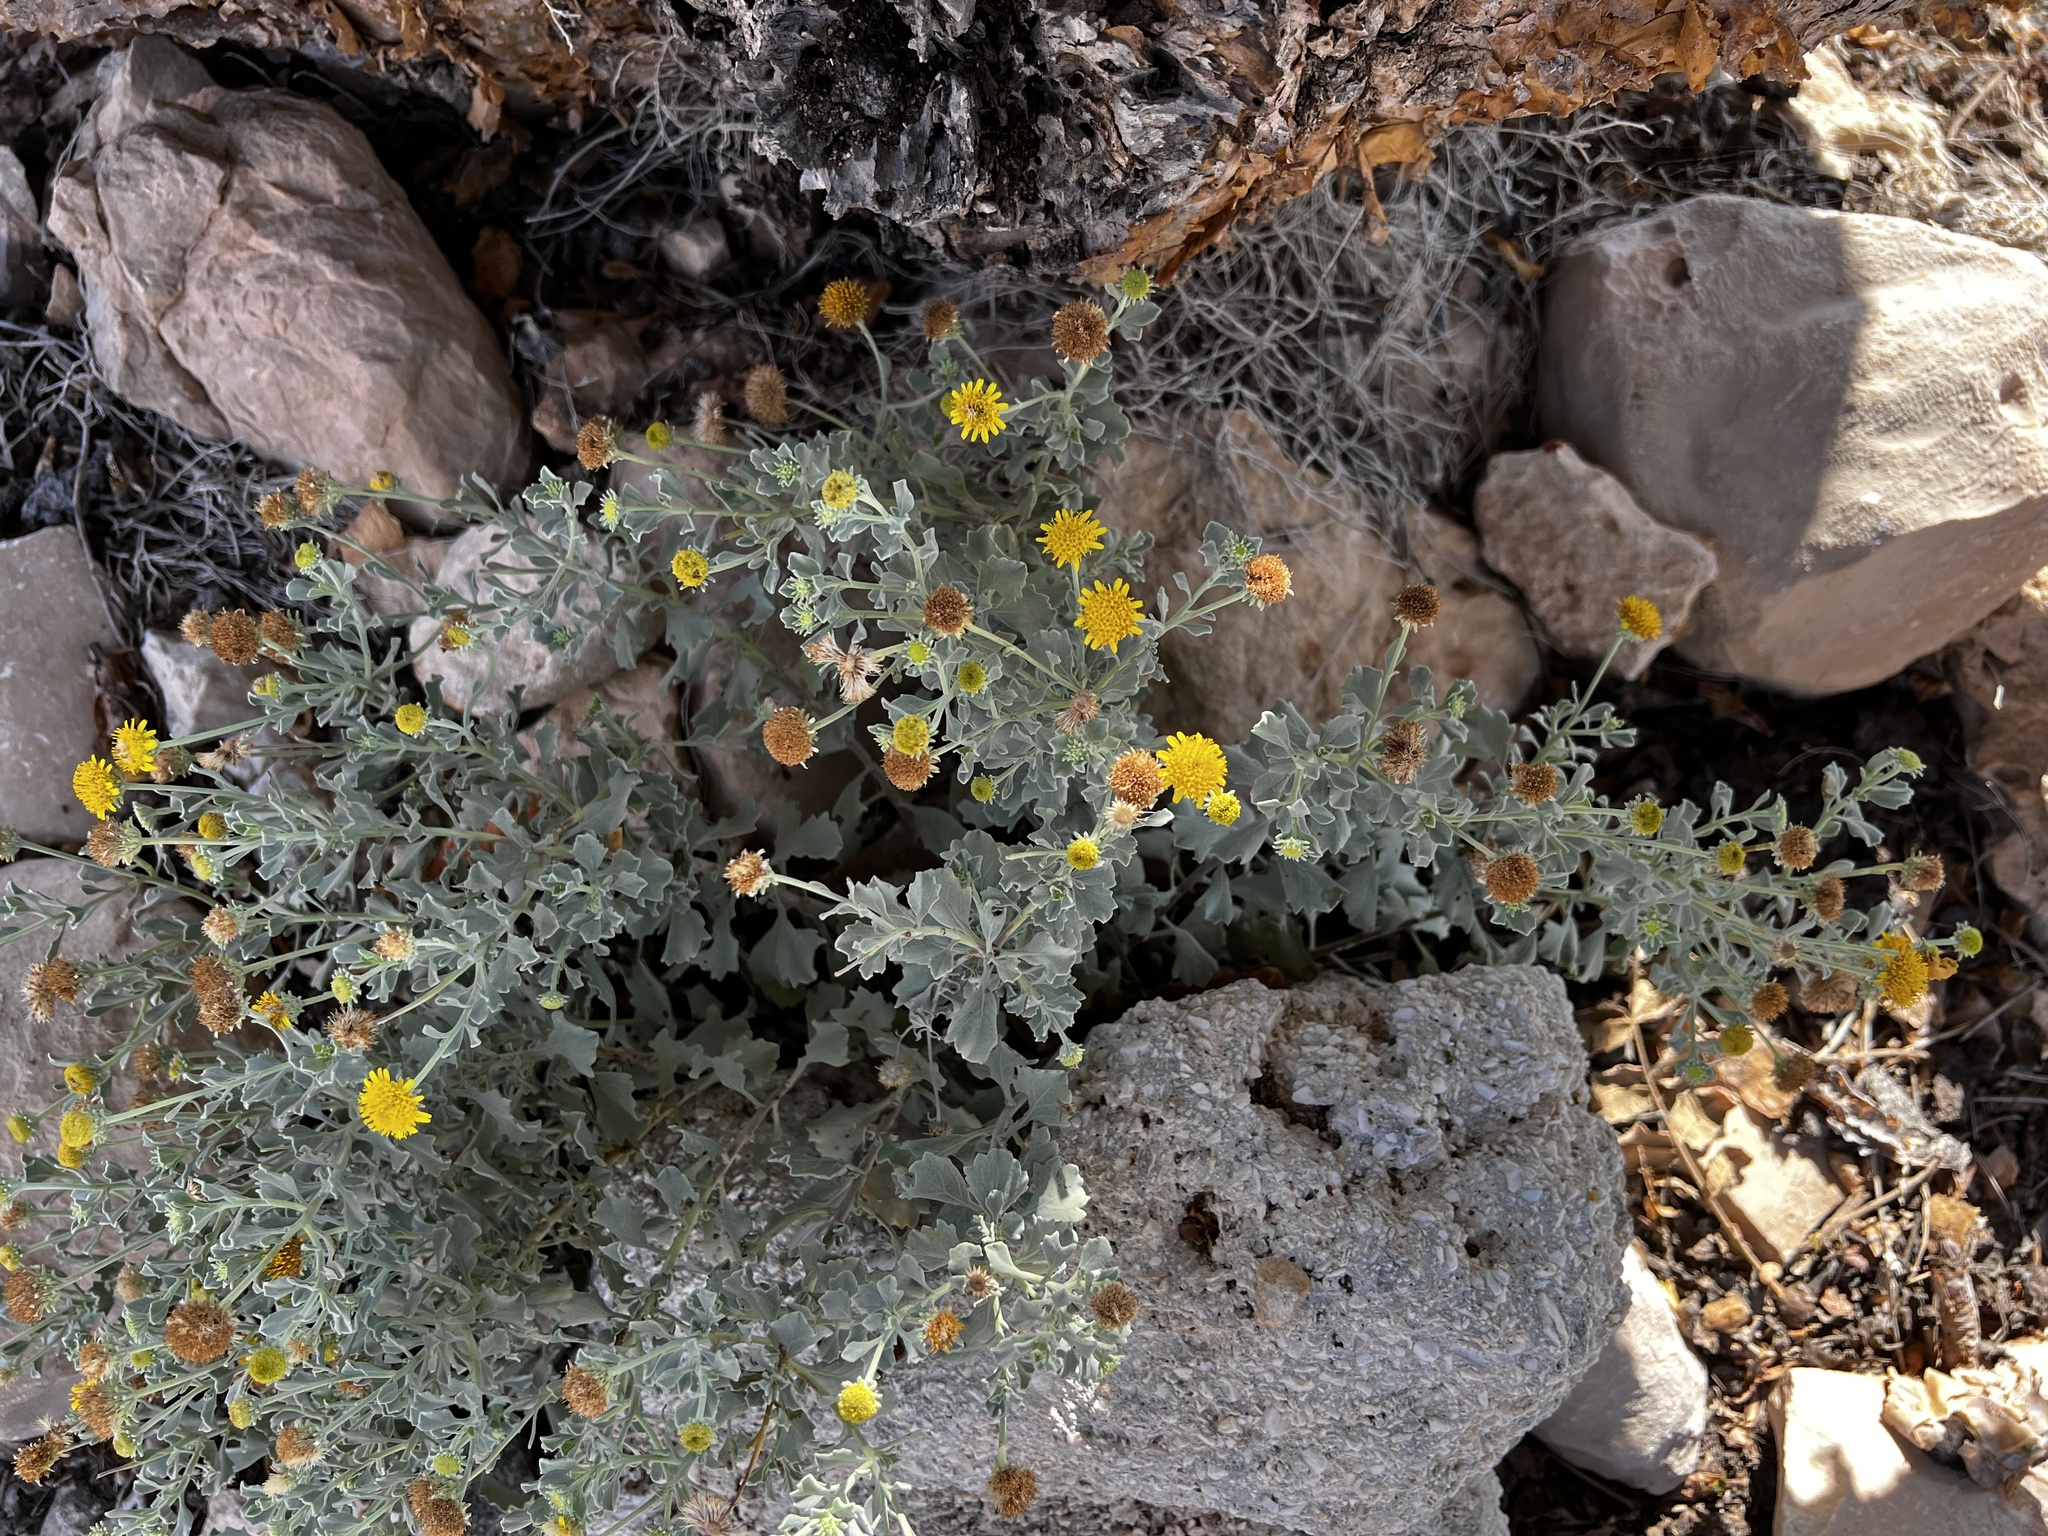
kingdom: Plantae
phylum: Tracheophyta
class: Magnoliopsida
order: Asterales
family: Asteraceae
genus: Jacobaea
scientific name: Jacobaea maritima
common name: Silver ragwort
